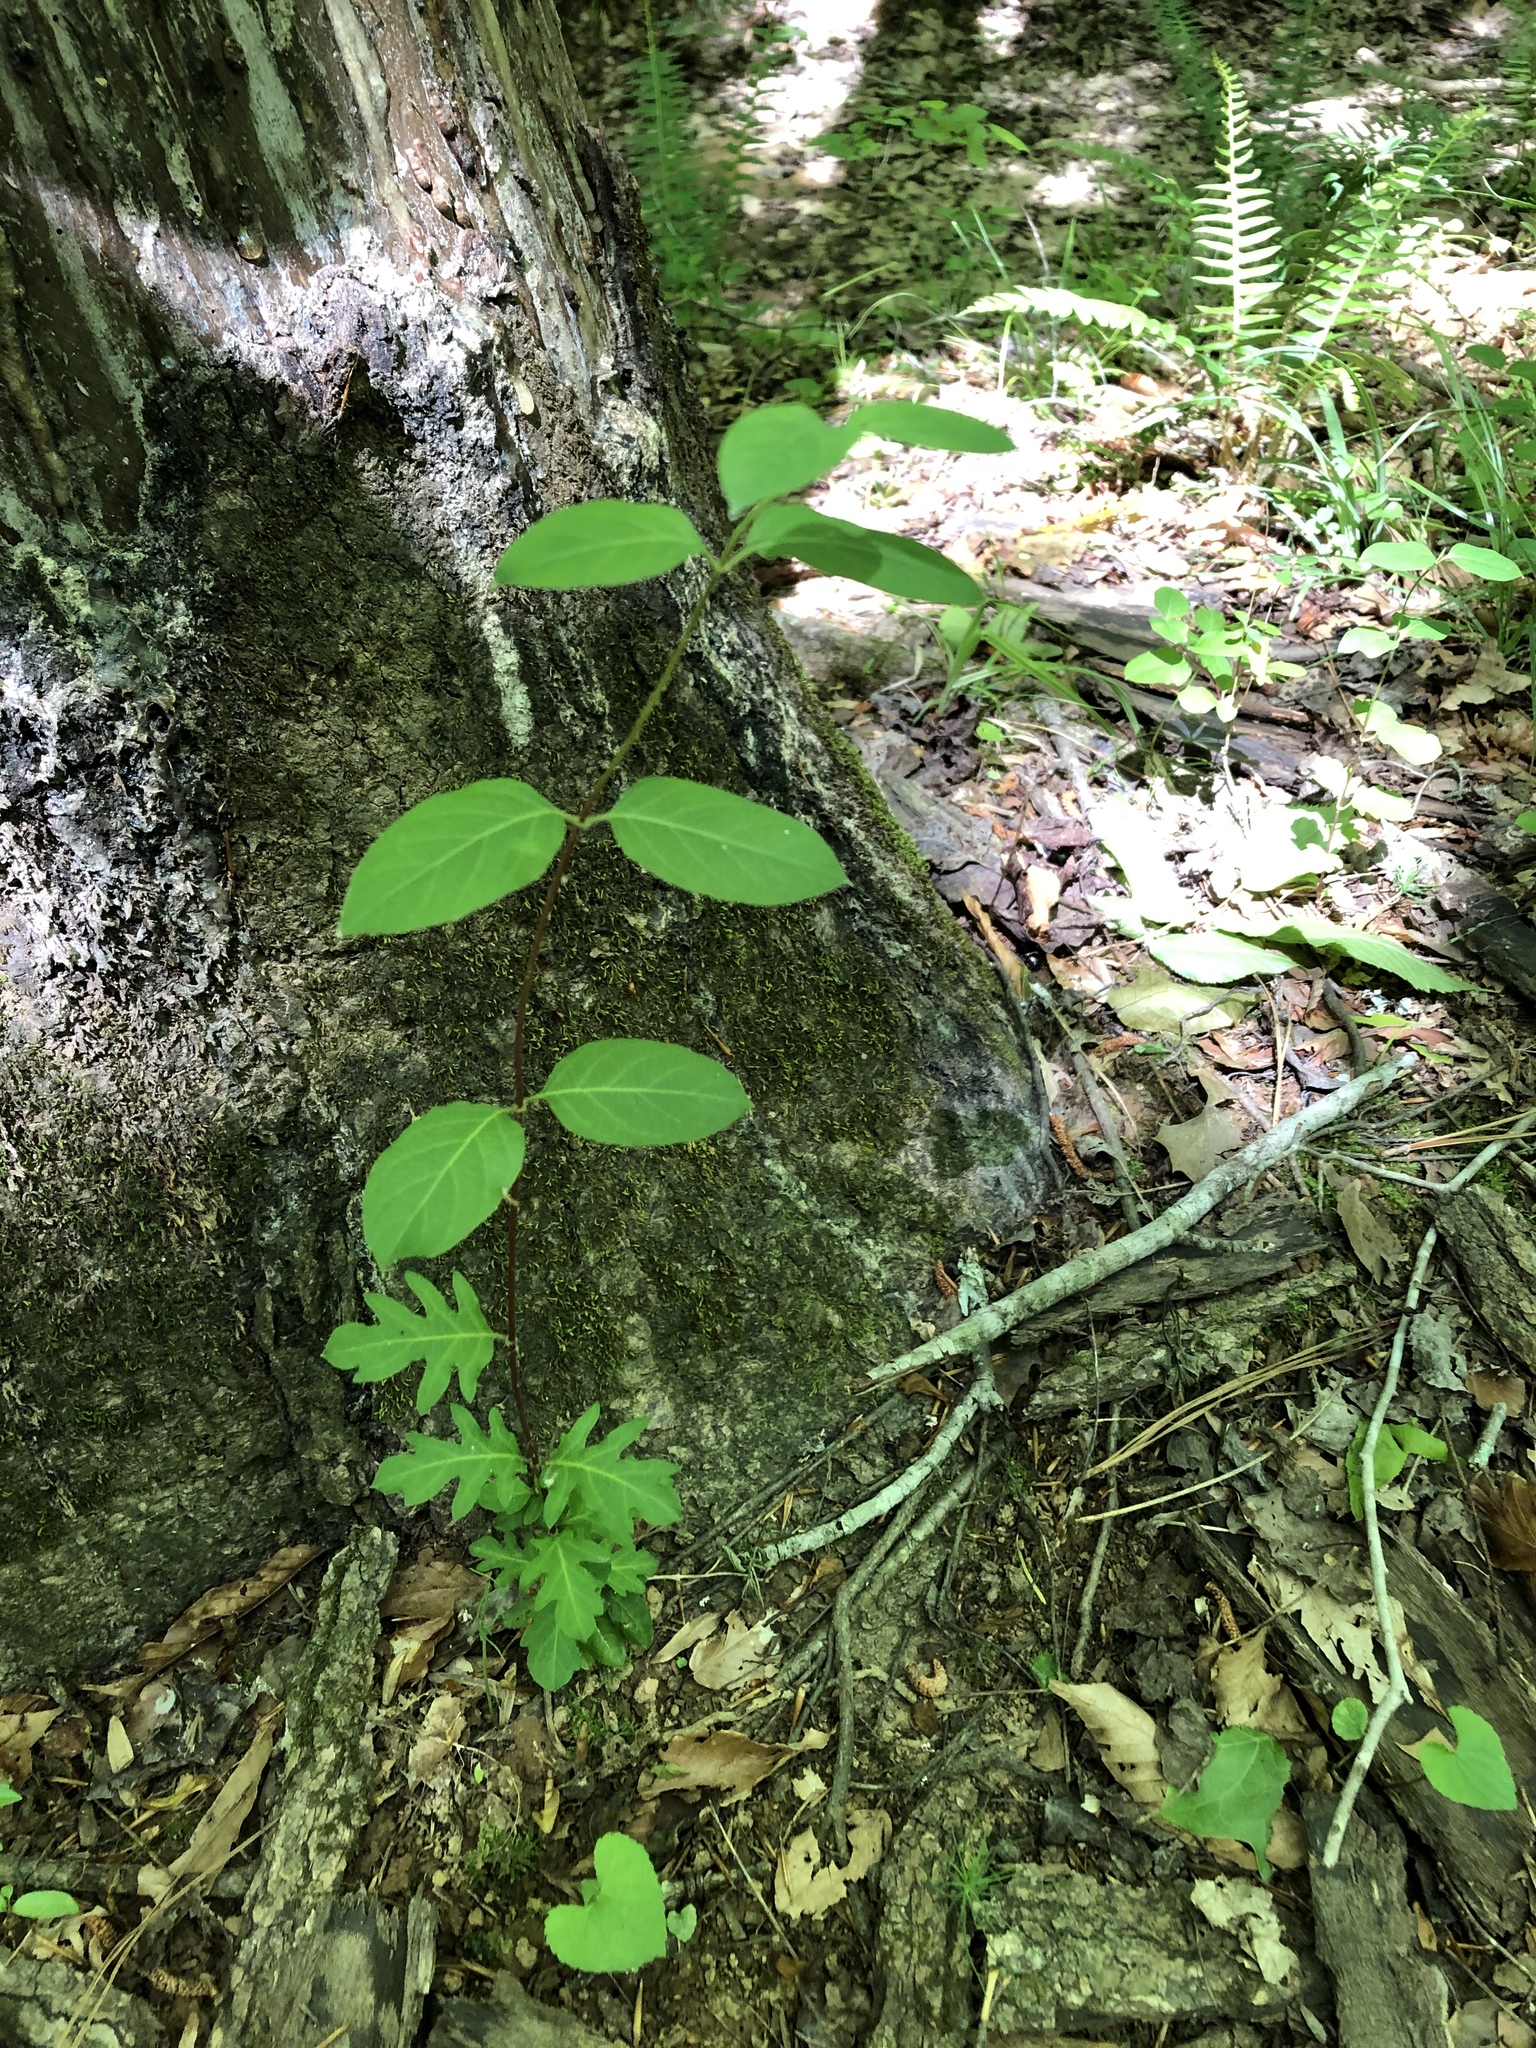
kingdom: Plantae
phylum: Tracheophyta
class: Magnoliopsida
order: Dipsacales
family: Caprifoliaceae
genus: Lonicera
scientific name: Lonicera japonica
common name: Japanese honeysuckle
